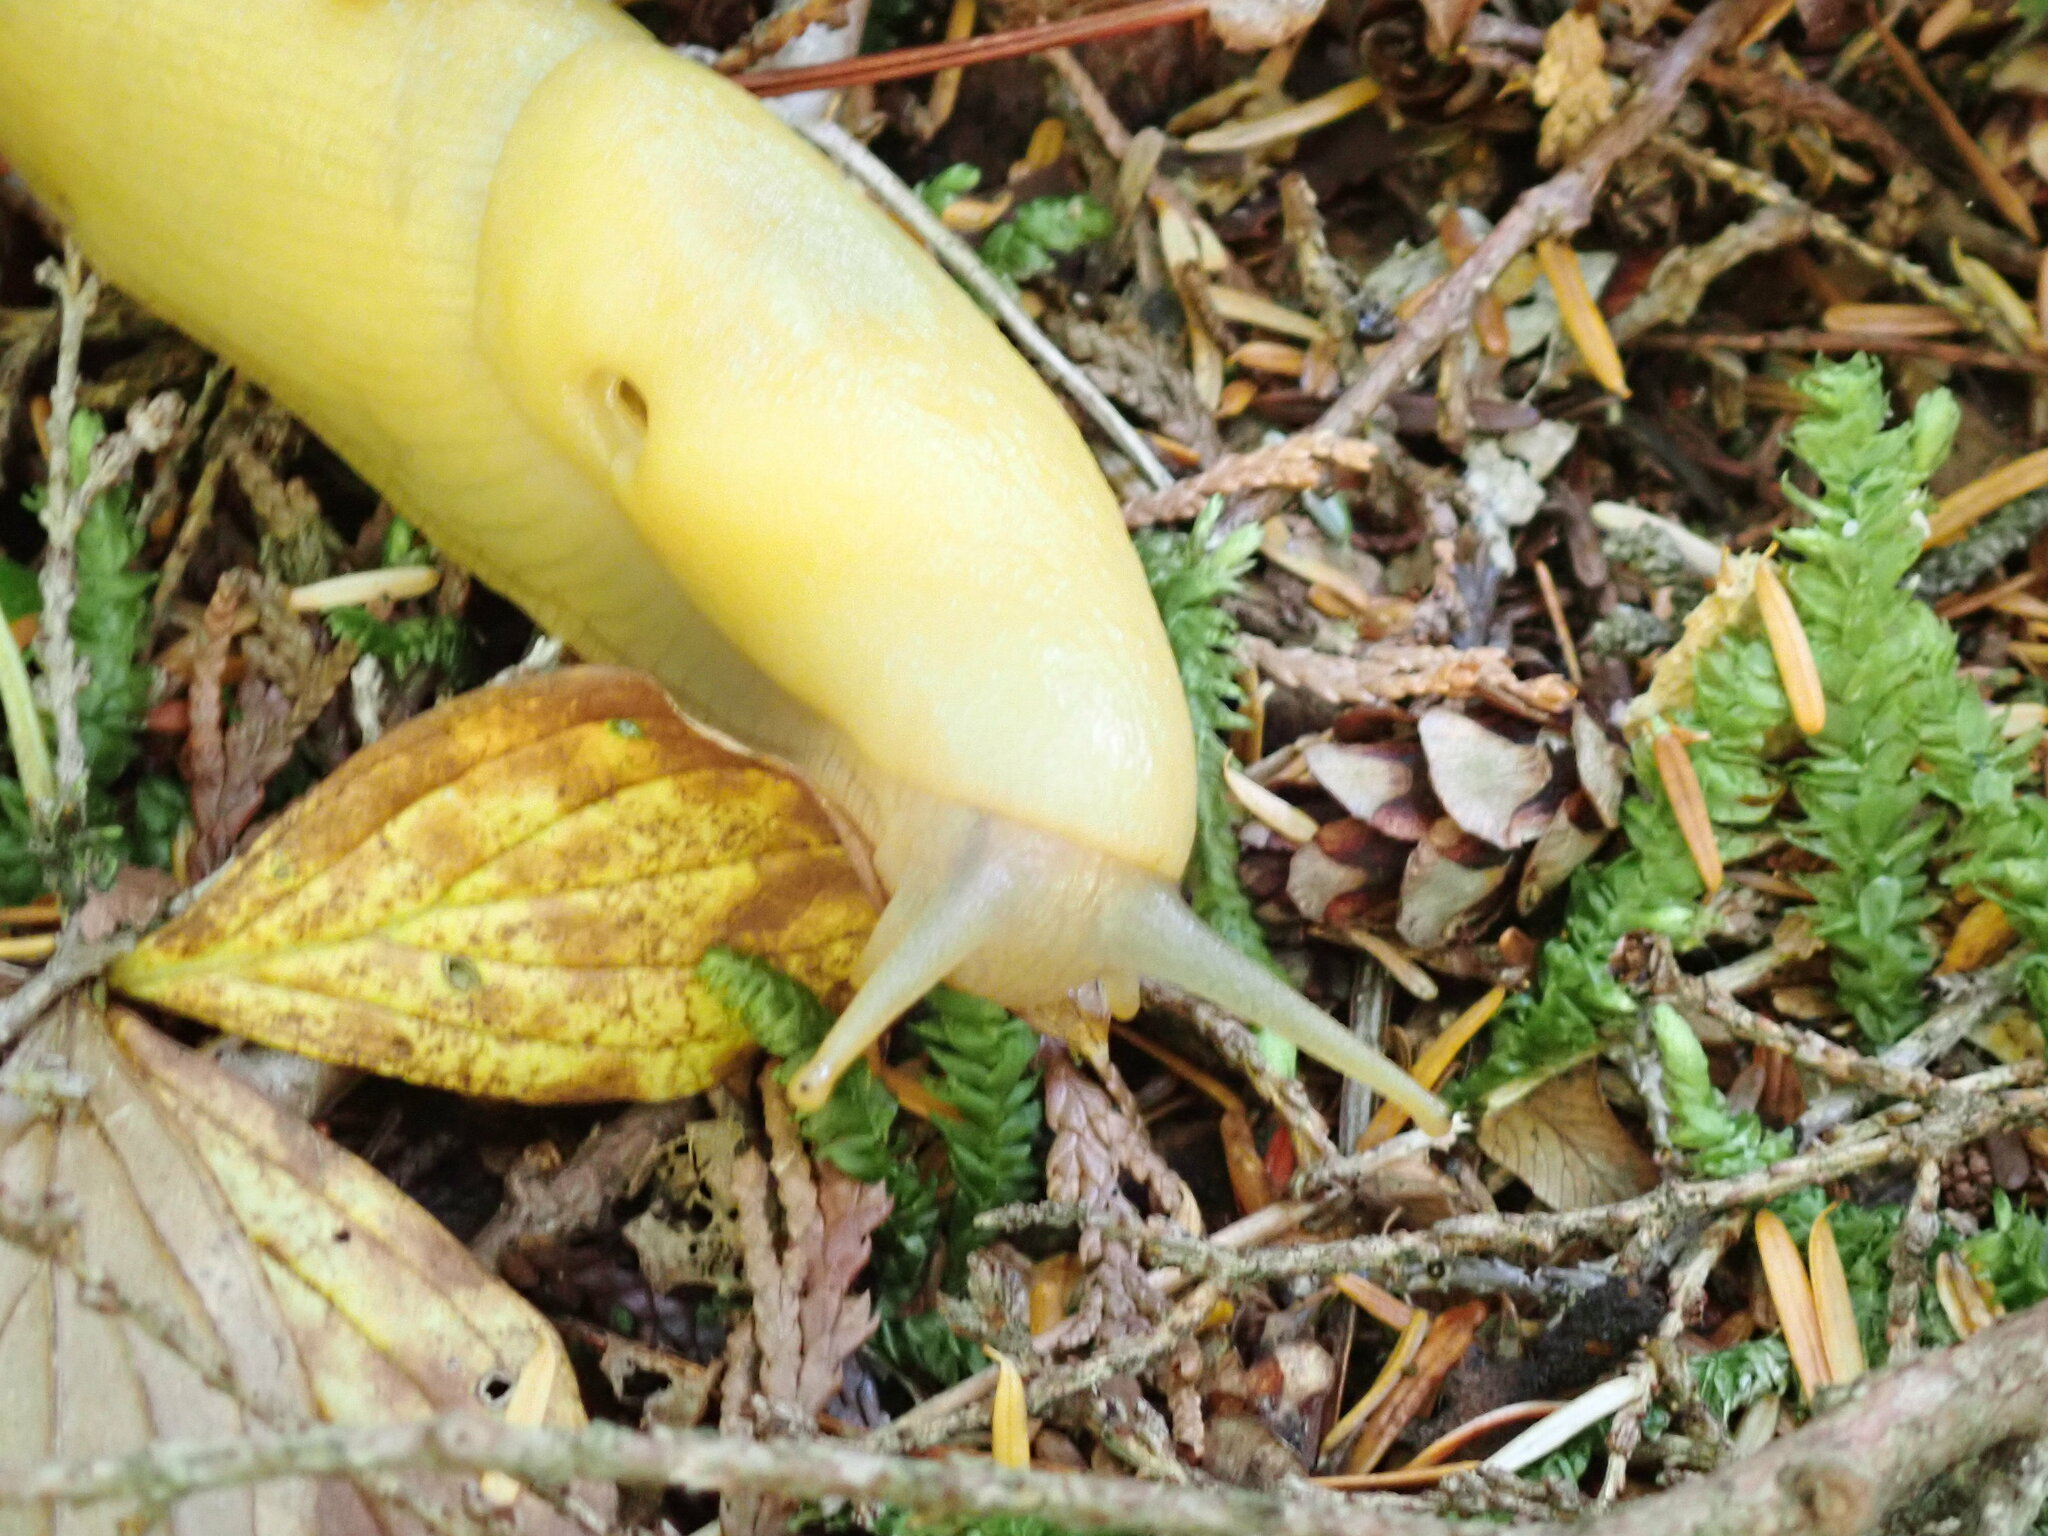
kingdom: Animalia
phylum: Mollusca
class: Gastropoda
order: Stylommatophora
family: Ariolimacidae
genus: Ariolimax
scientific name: Ariolimax columbianus
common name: Pacific banana slug
